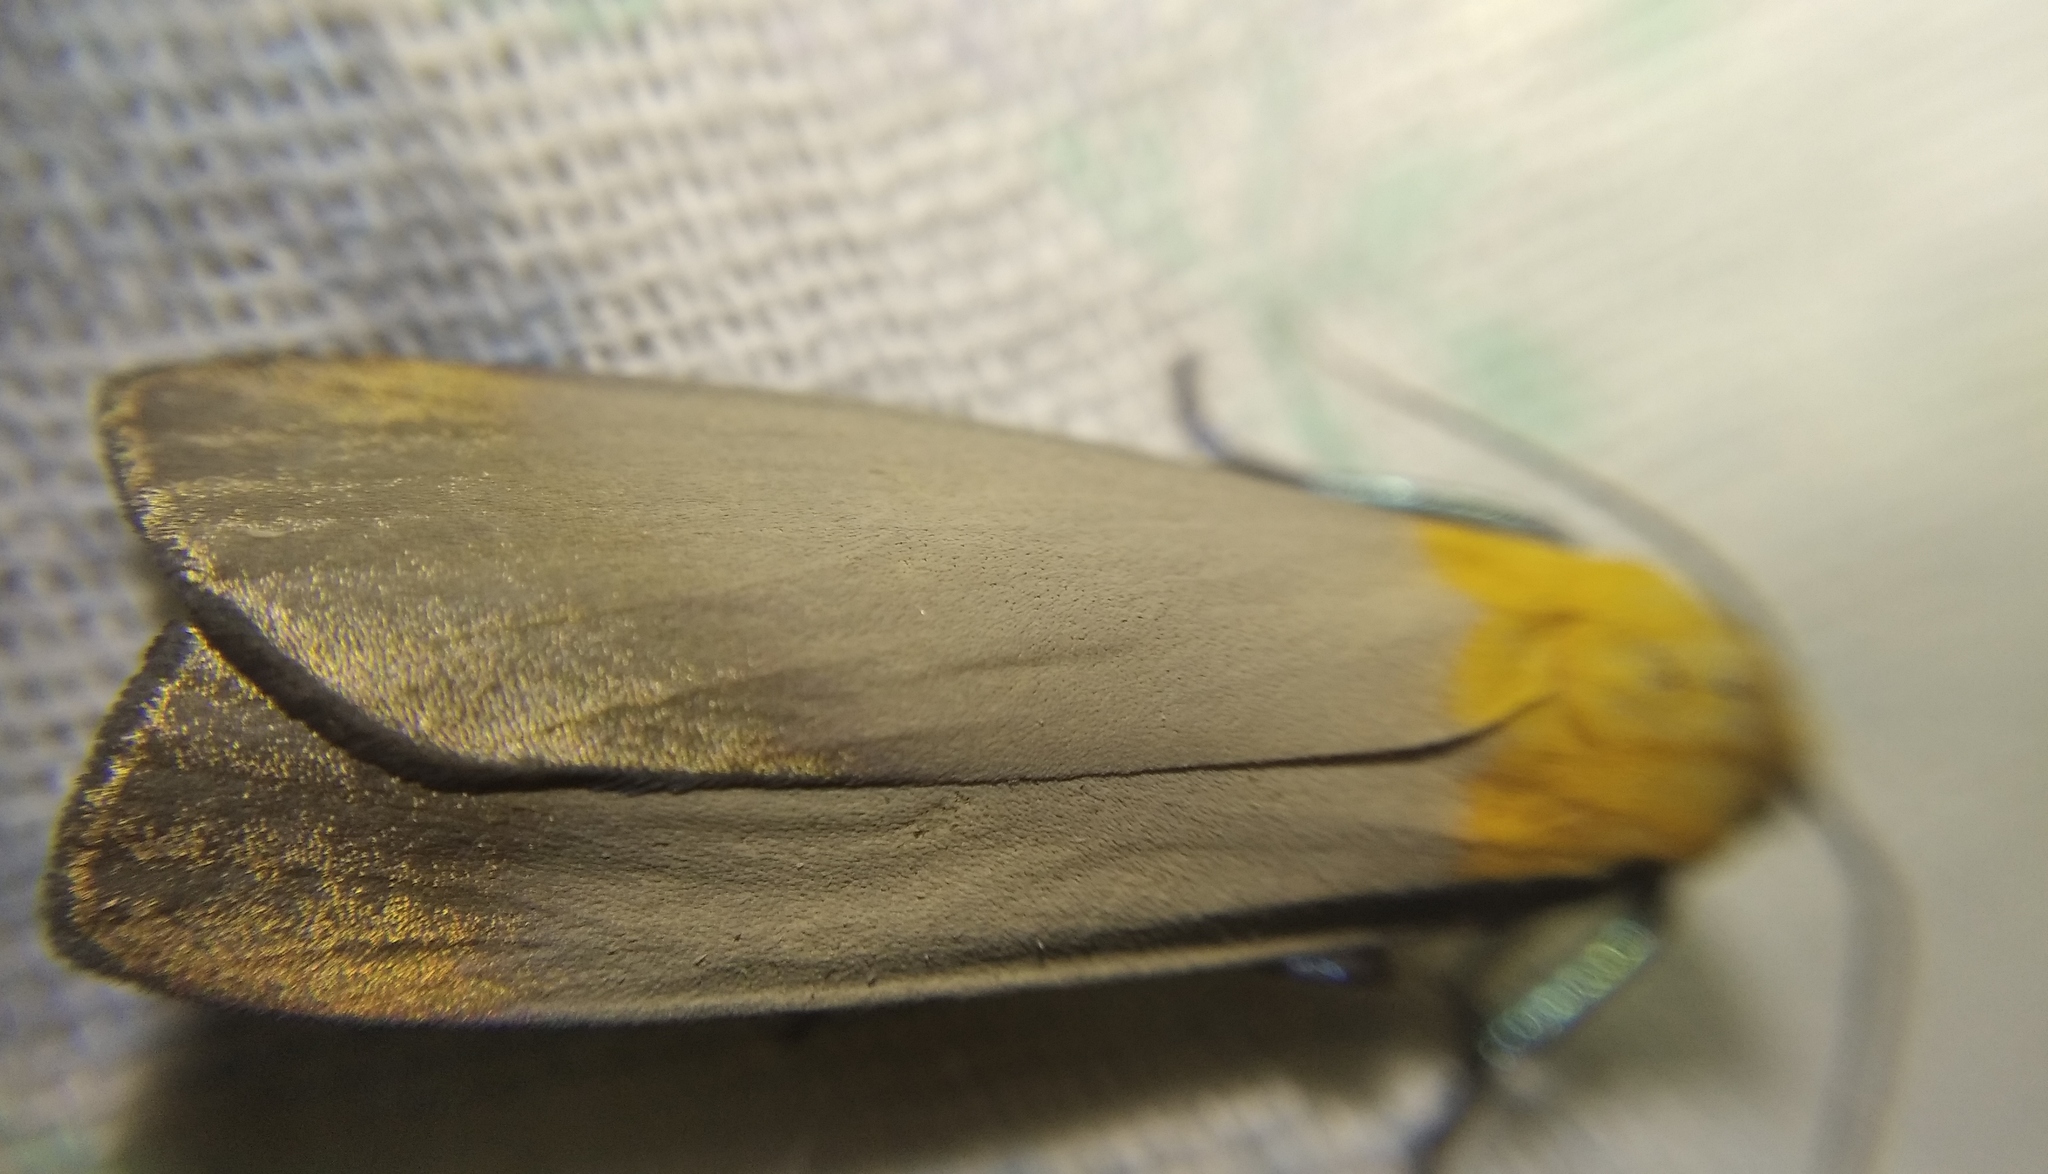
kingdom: Animalia
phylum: Arthropoda
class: Insecta
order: Lepidoptera
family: Erebidae
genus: Lithosia
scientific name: Lithosia quadra
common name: Four-spotted footman
